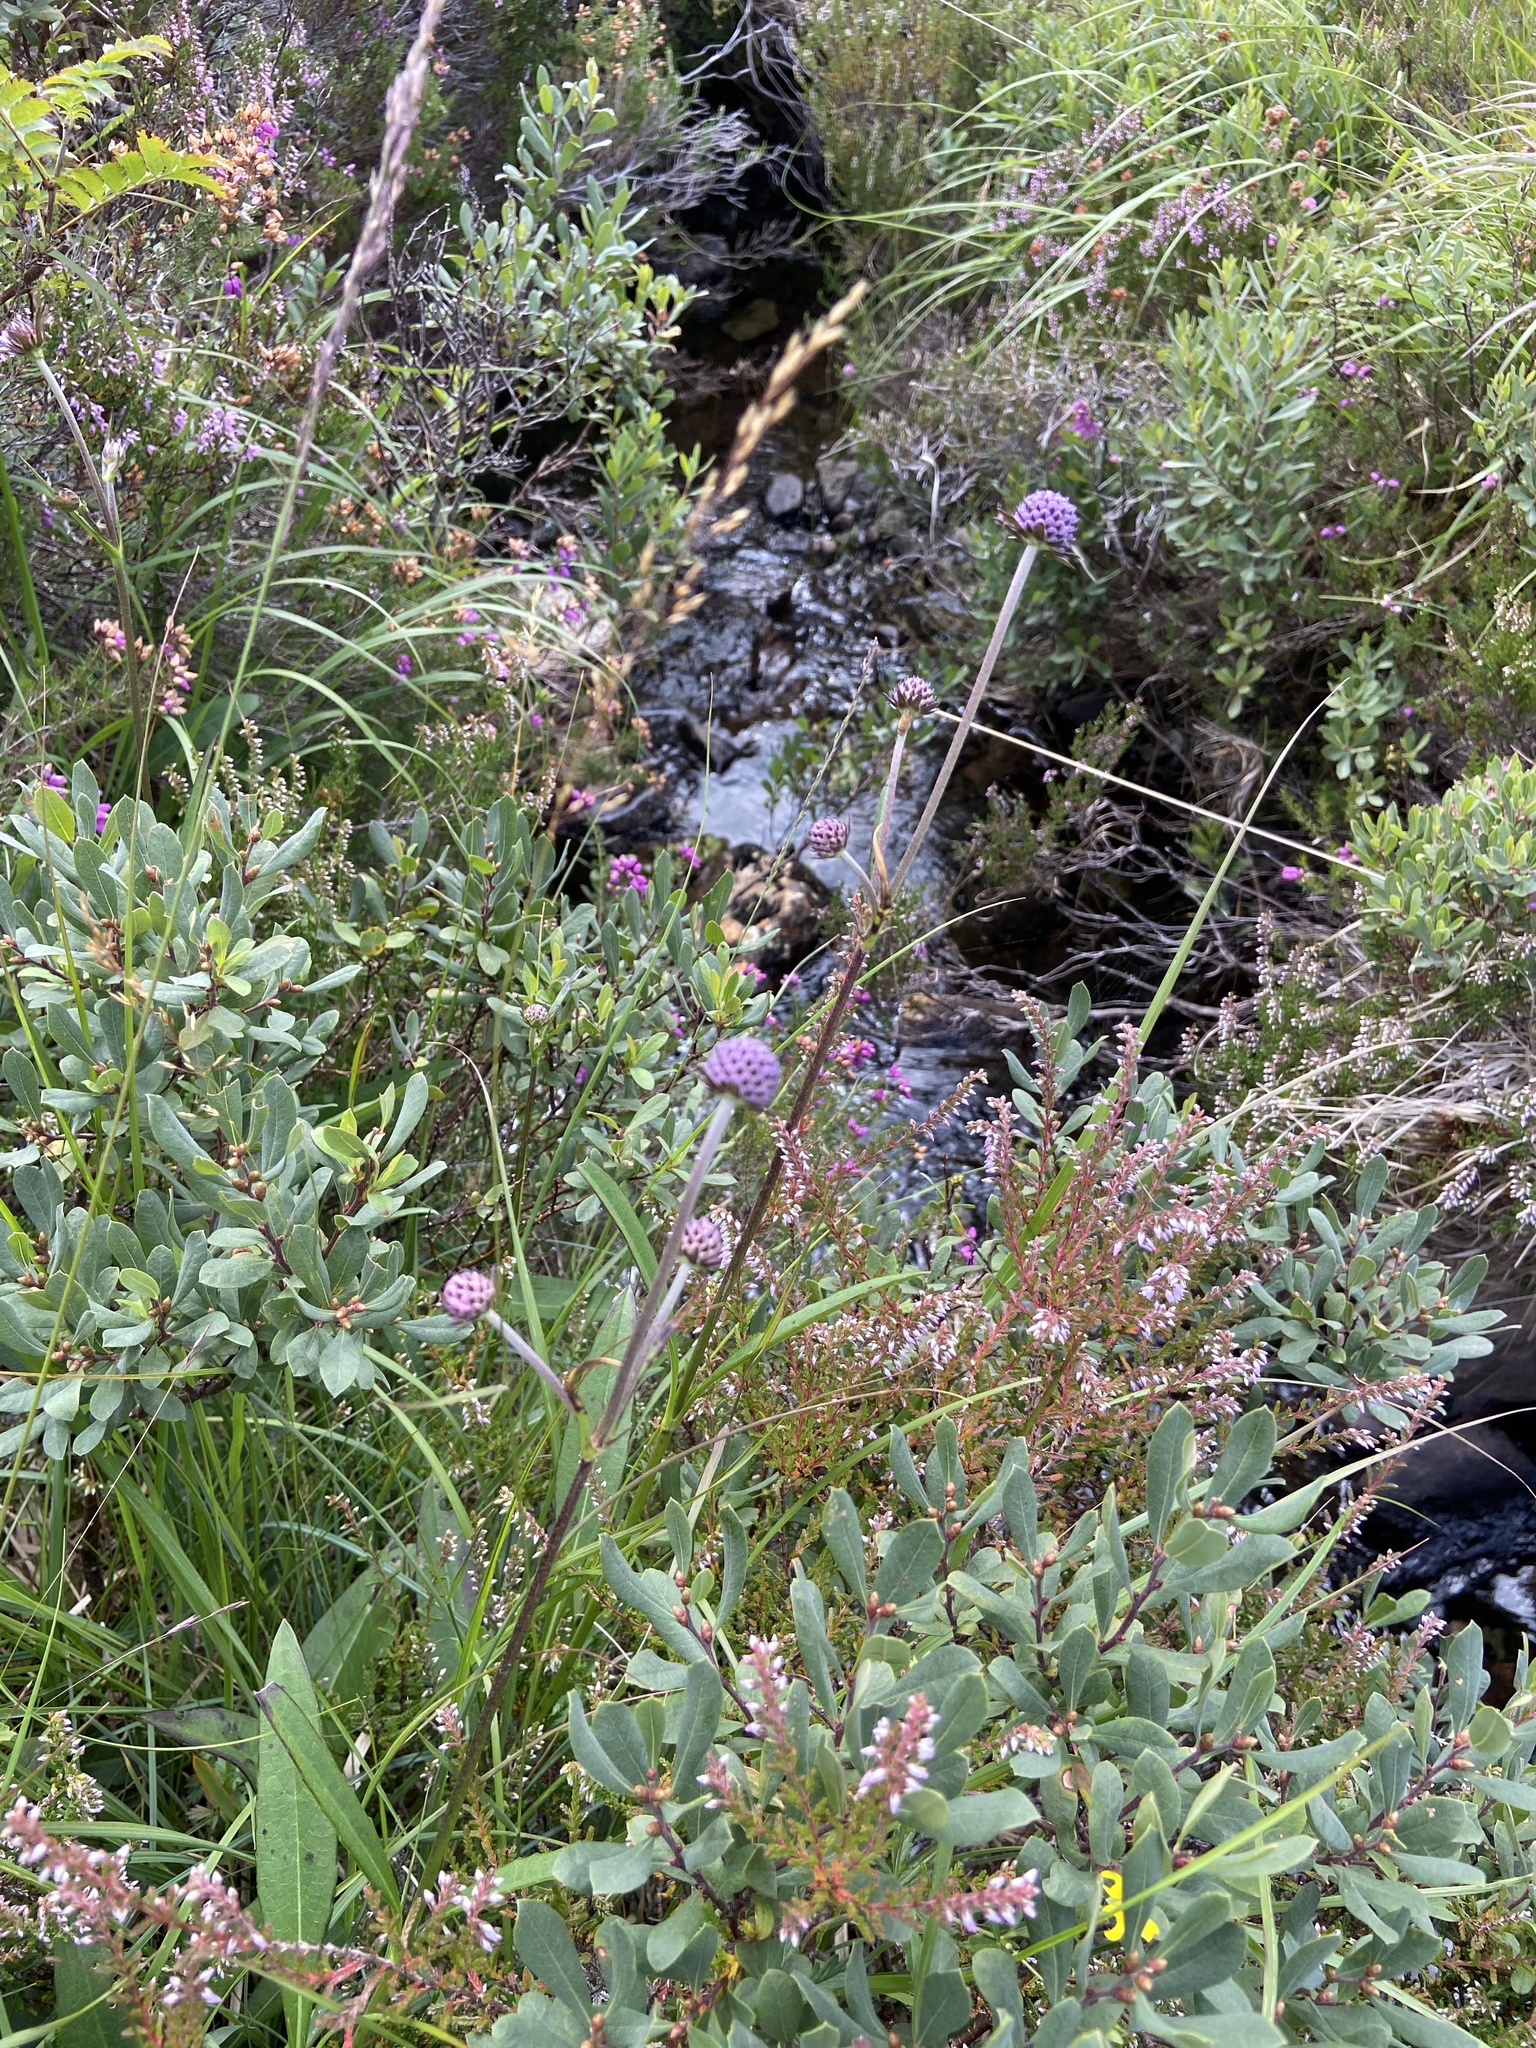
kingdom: Plantae
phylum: Tracheophyta
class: Magnoliopsida
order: Dipsacales
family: Caprifoliaceae
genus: Succisa
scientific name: Succisa pratensis
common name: Devil's-bit
